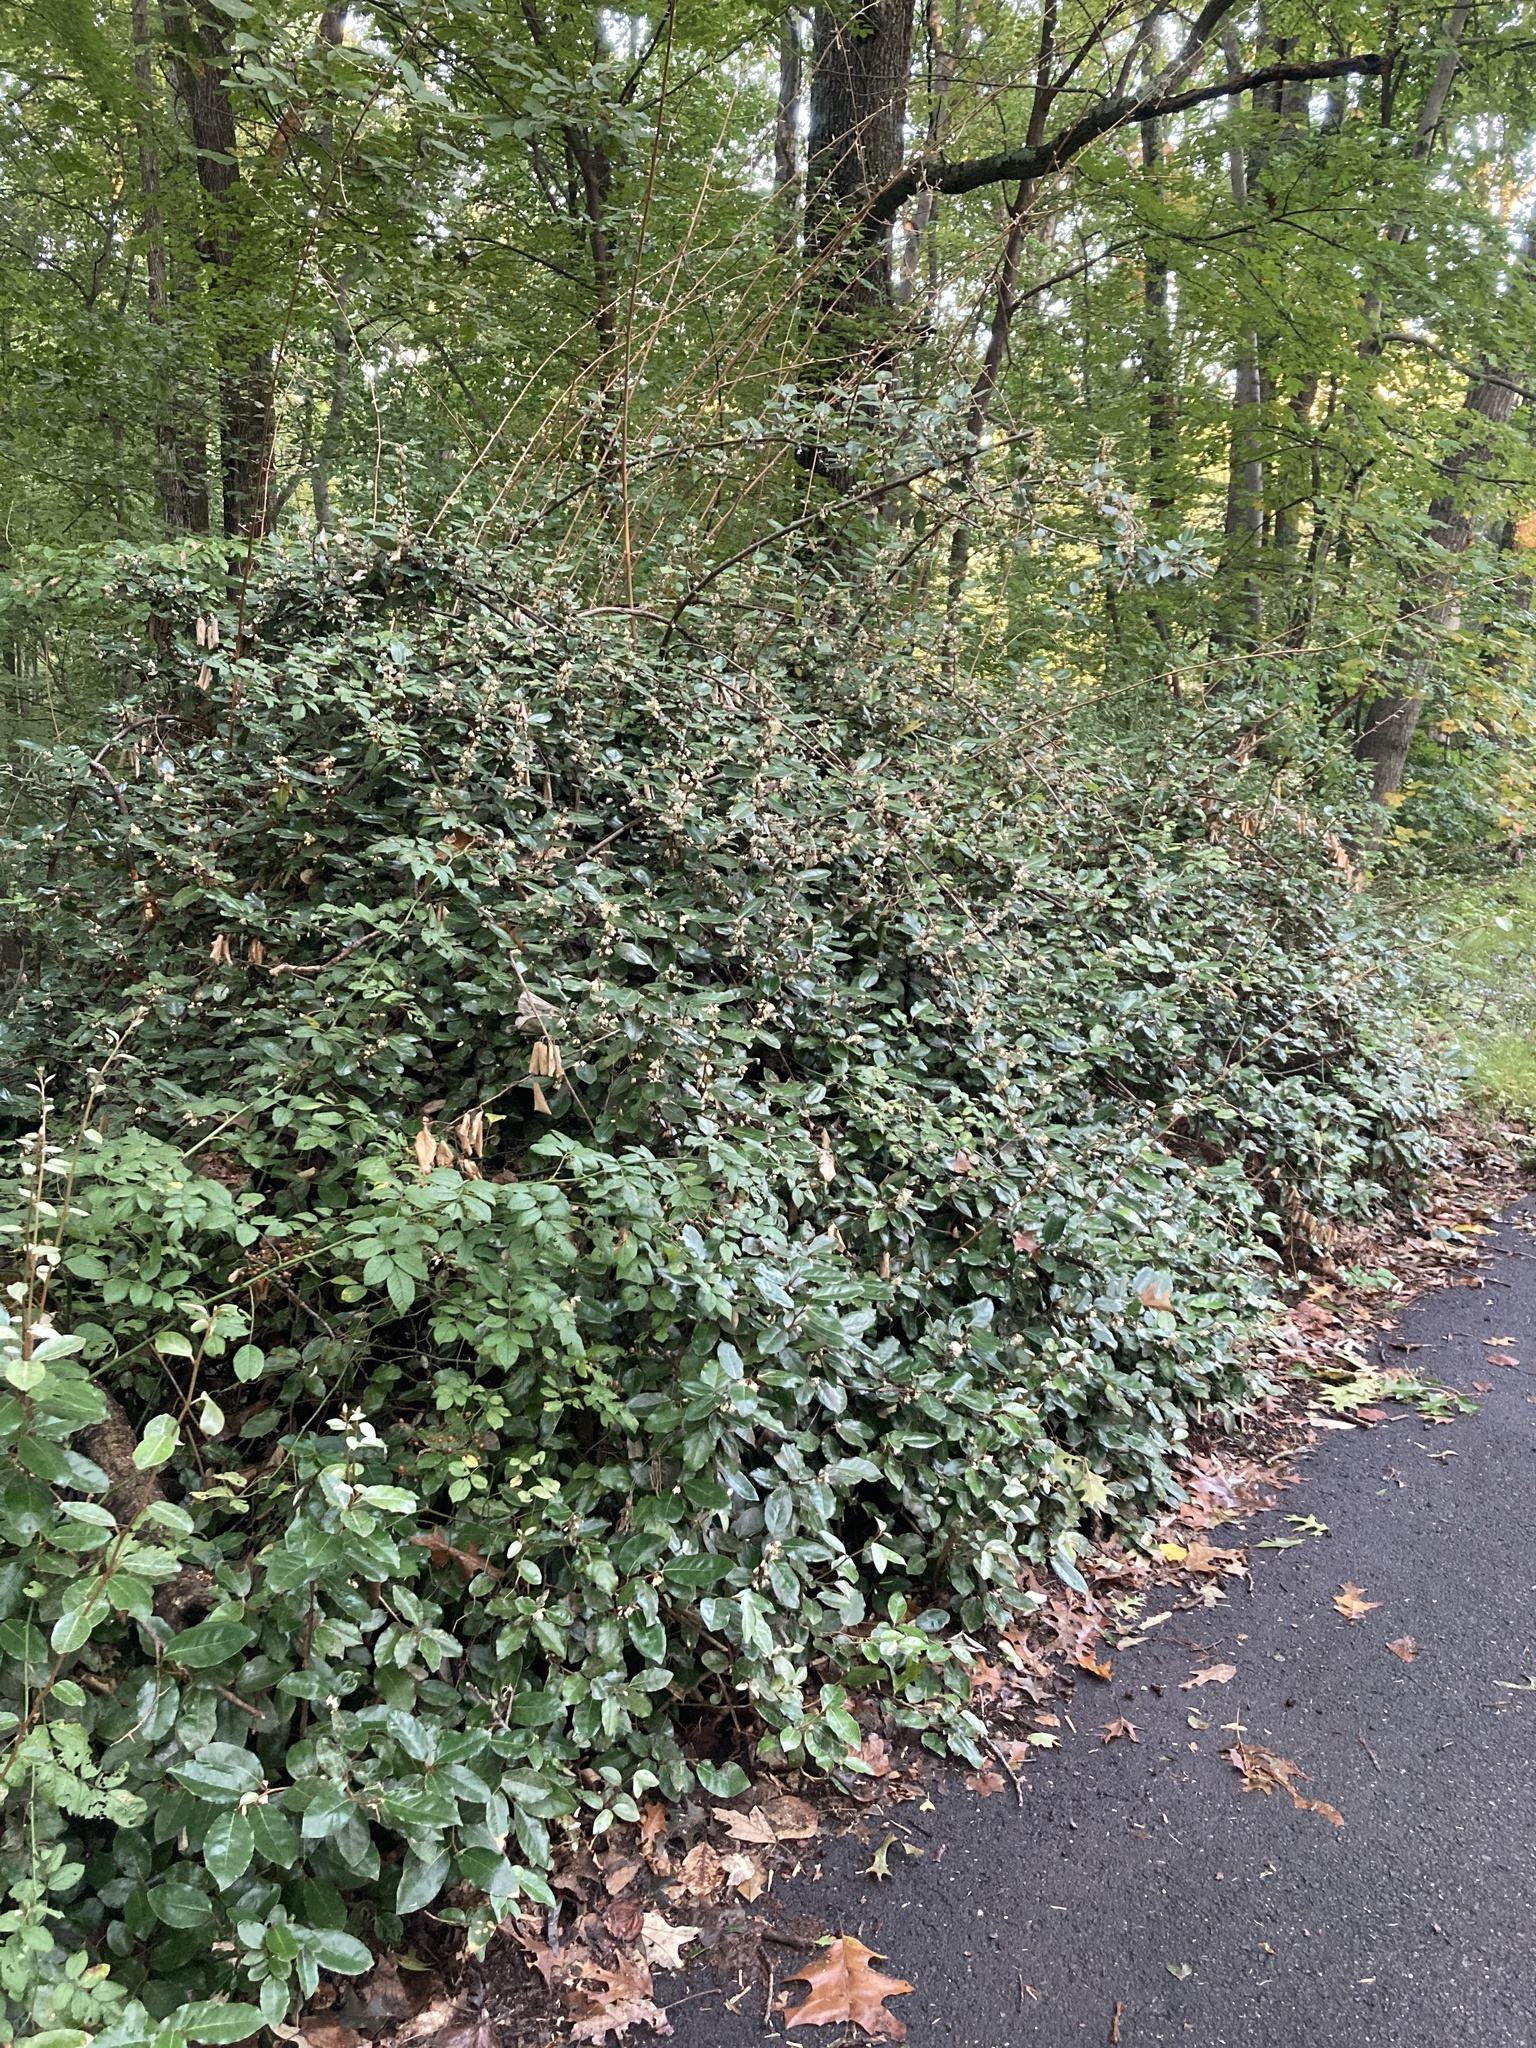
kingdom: Plantae
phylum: Tracheophyta
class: Magnoliopsida
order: Rosales
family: Elaeagnaceae
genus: Elaeagnus
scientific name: Elaeagnus pungens
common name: Spiny oleaster
